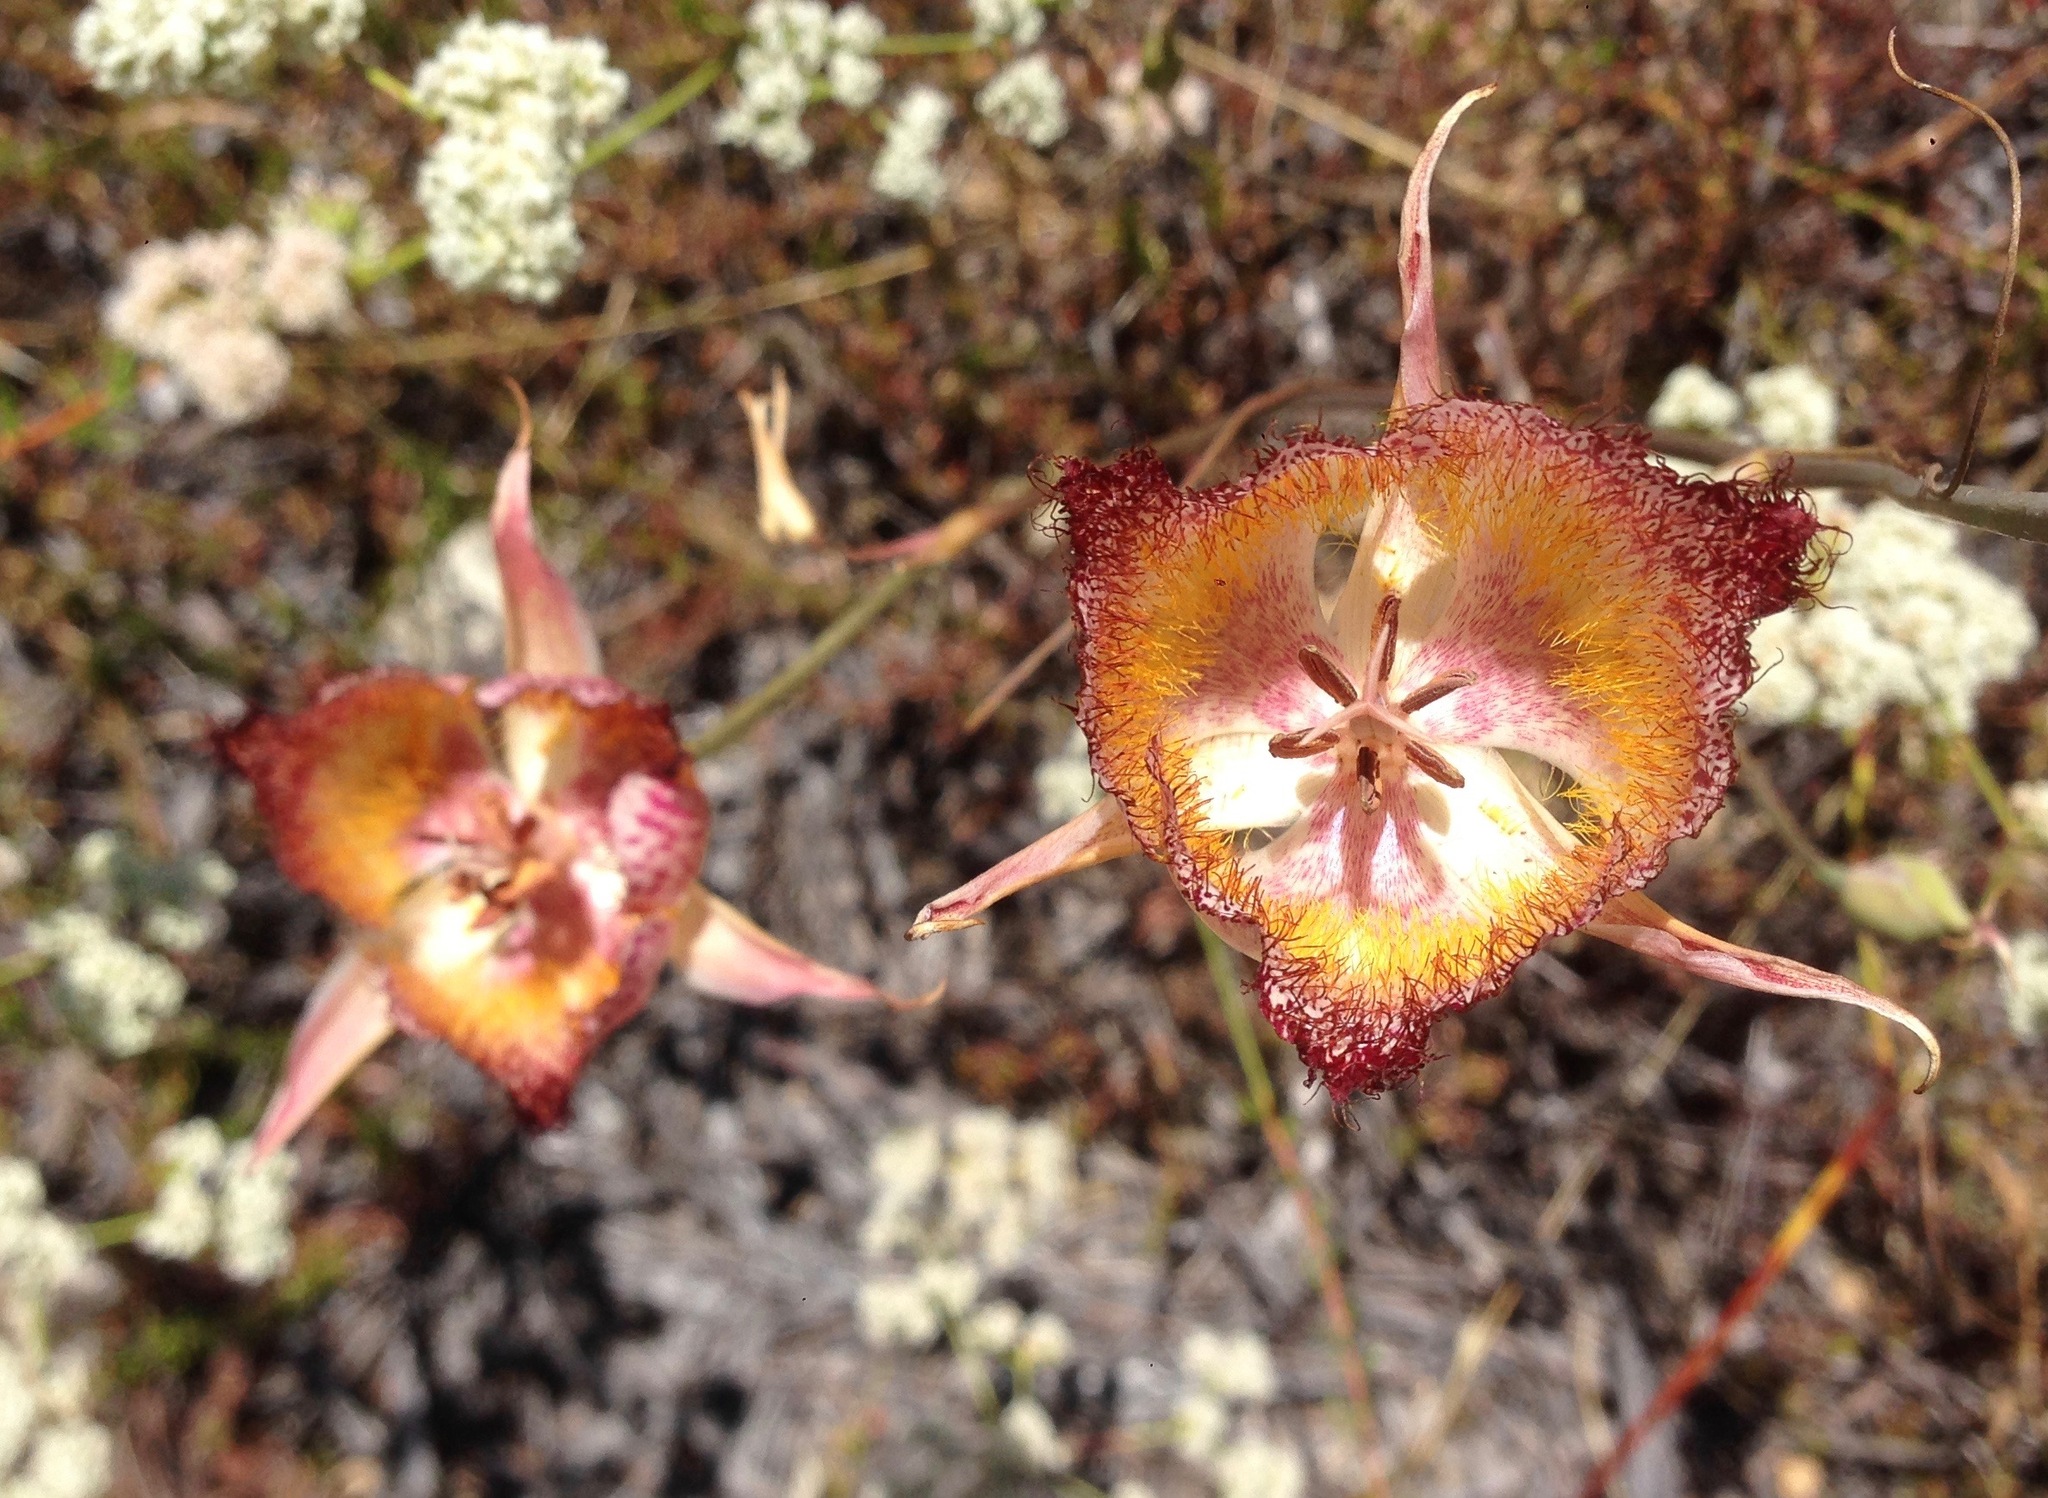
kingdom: Plantae
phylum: Tracheophyta
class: Liliopsida
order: Liliales
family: Liliaceae
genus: Calochortus
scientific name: Calochortus fimbriatus
